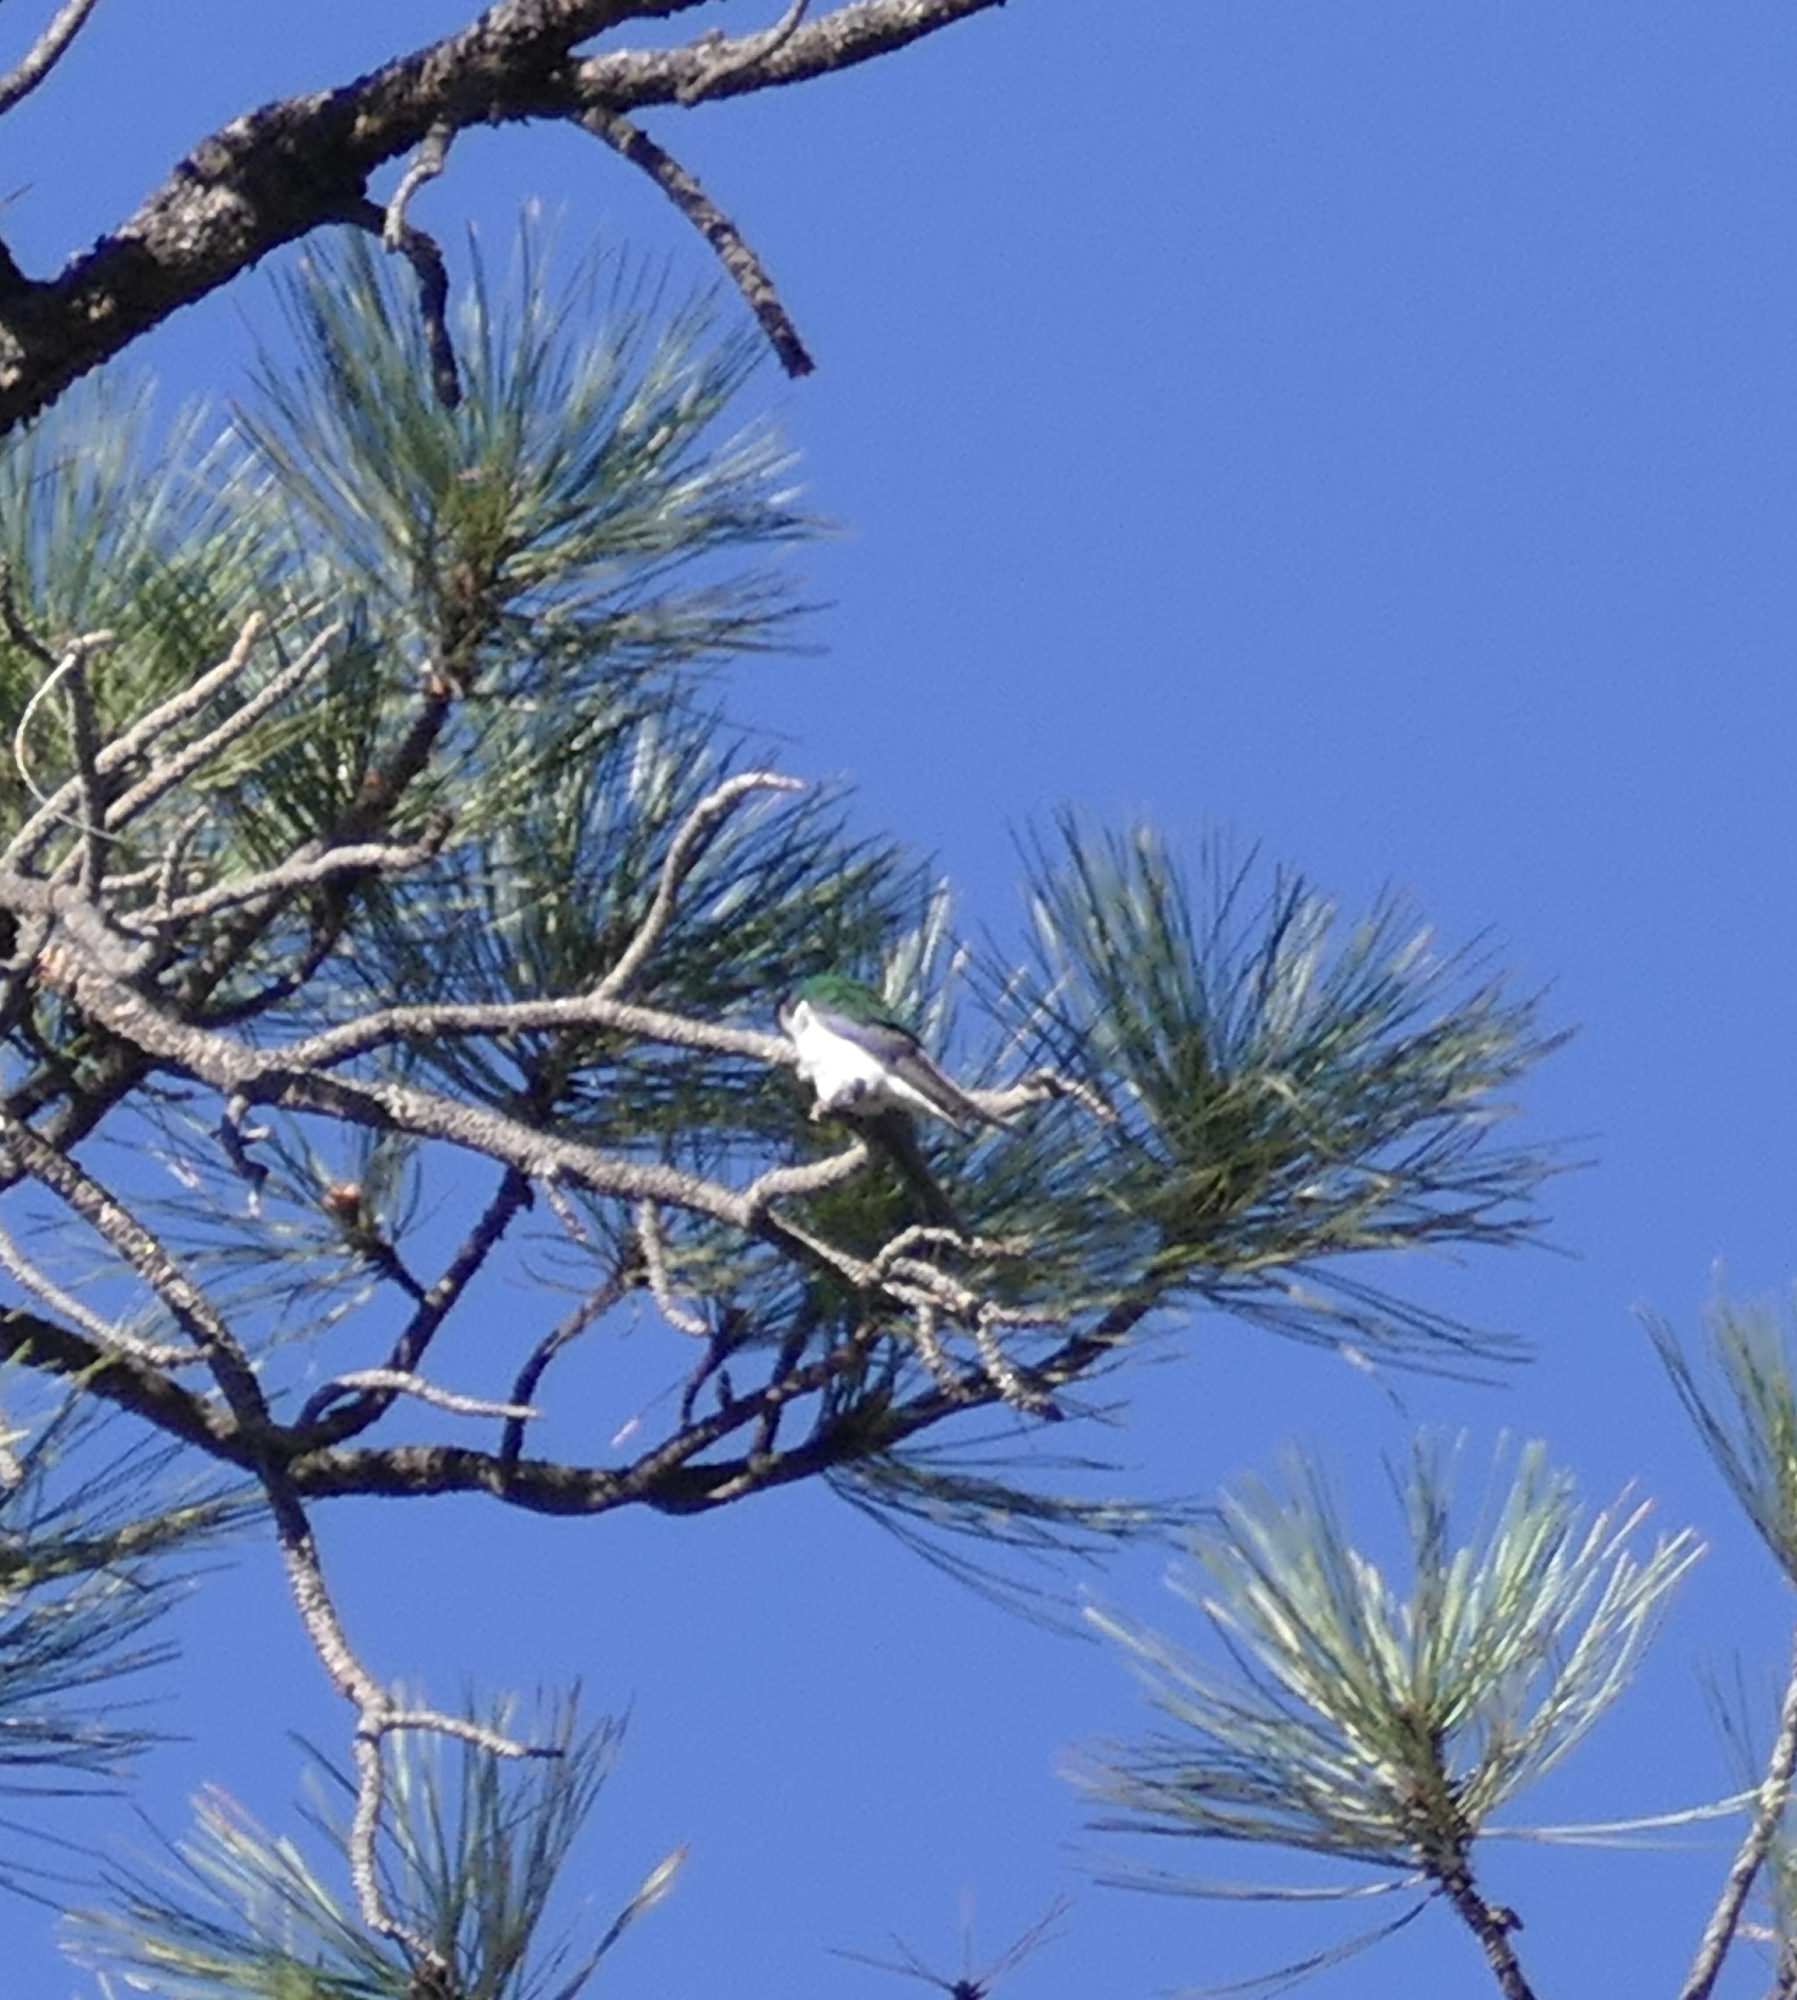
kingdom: Animalia
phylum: Chordata
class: Aves
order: Passeriformes
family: Hirundinidae
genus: Tachycineta
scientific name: Tachycineta thalassina
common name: Violet-green swallow
